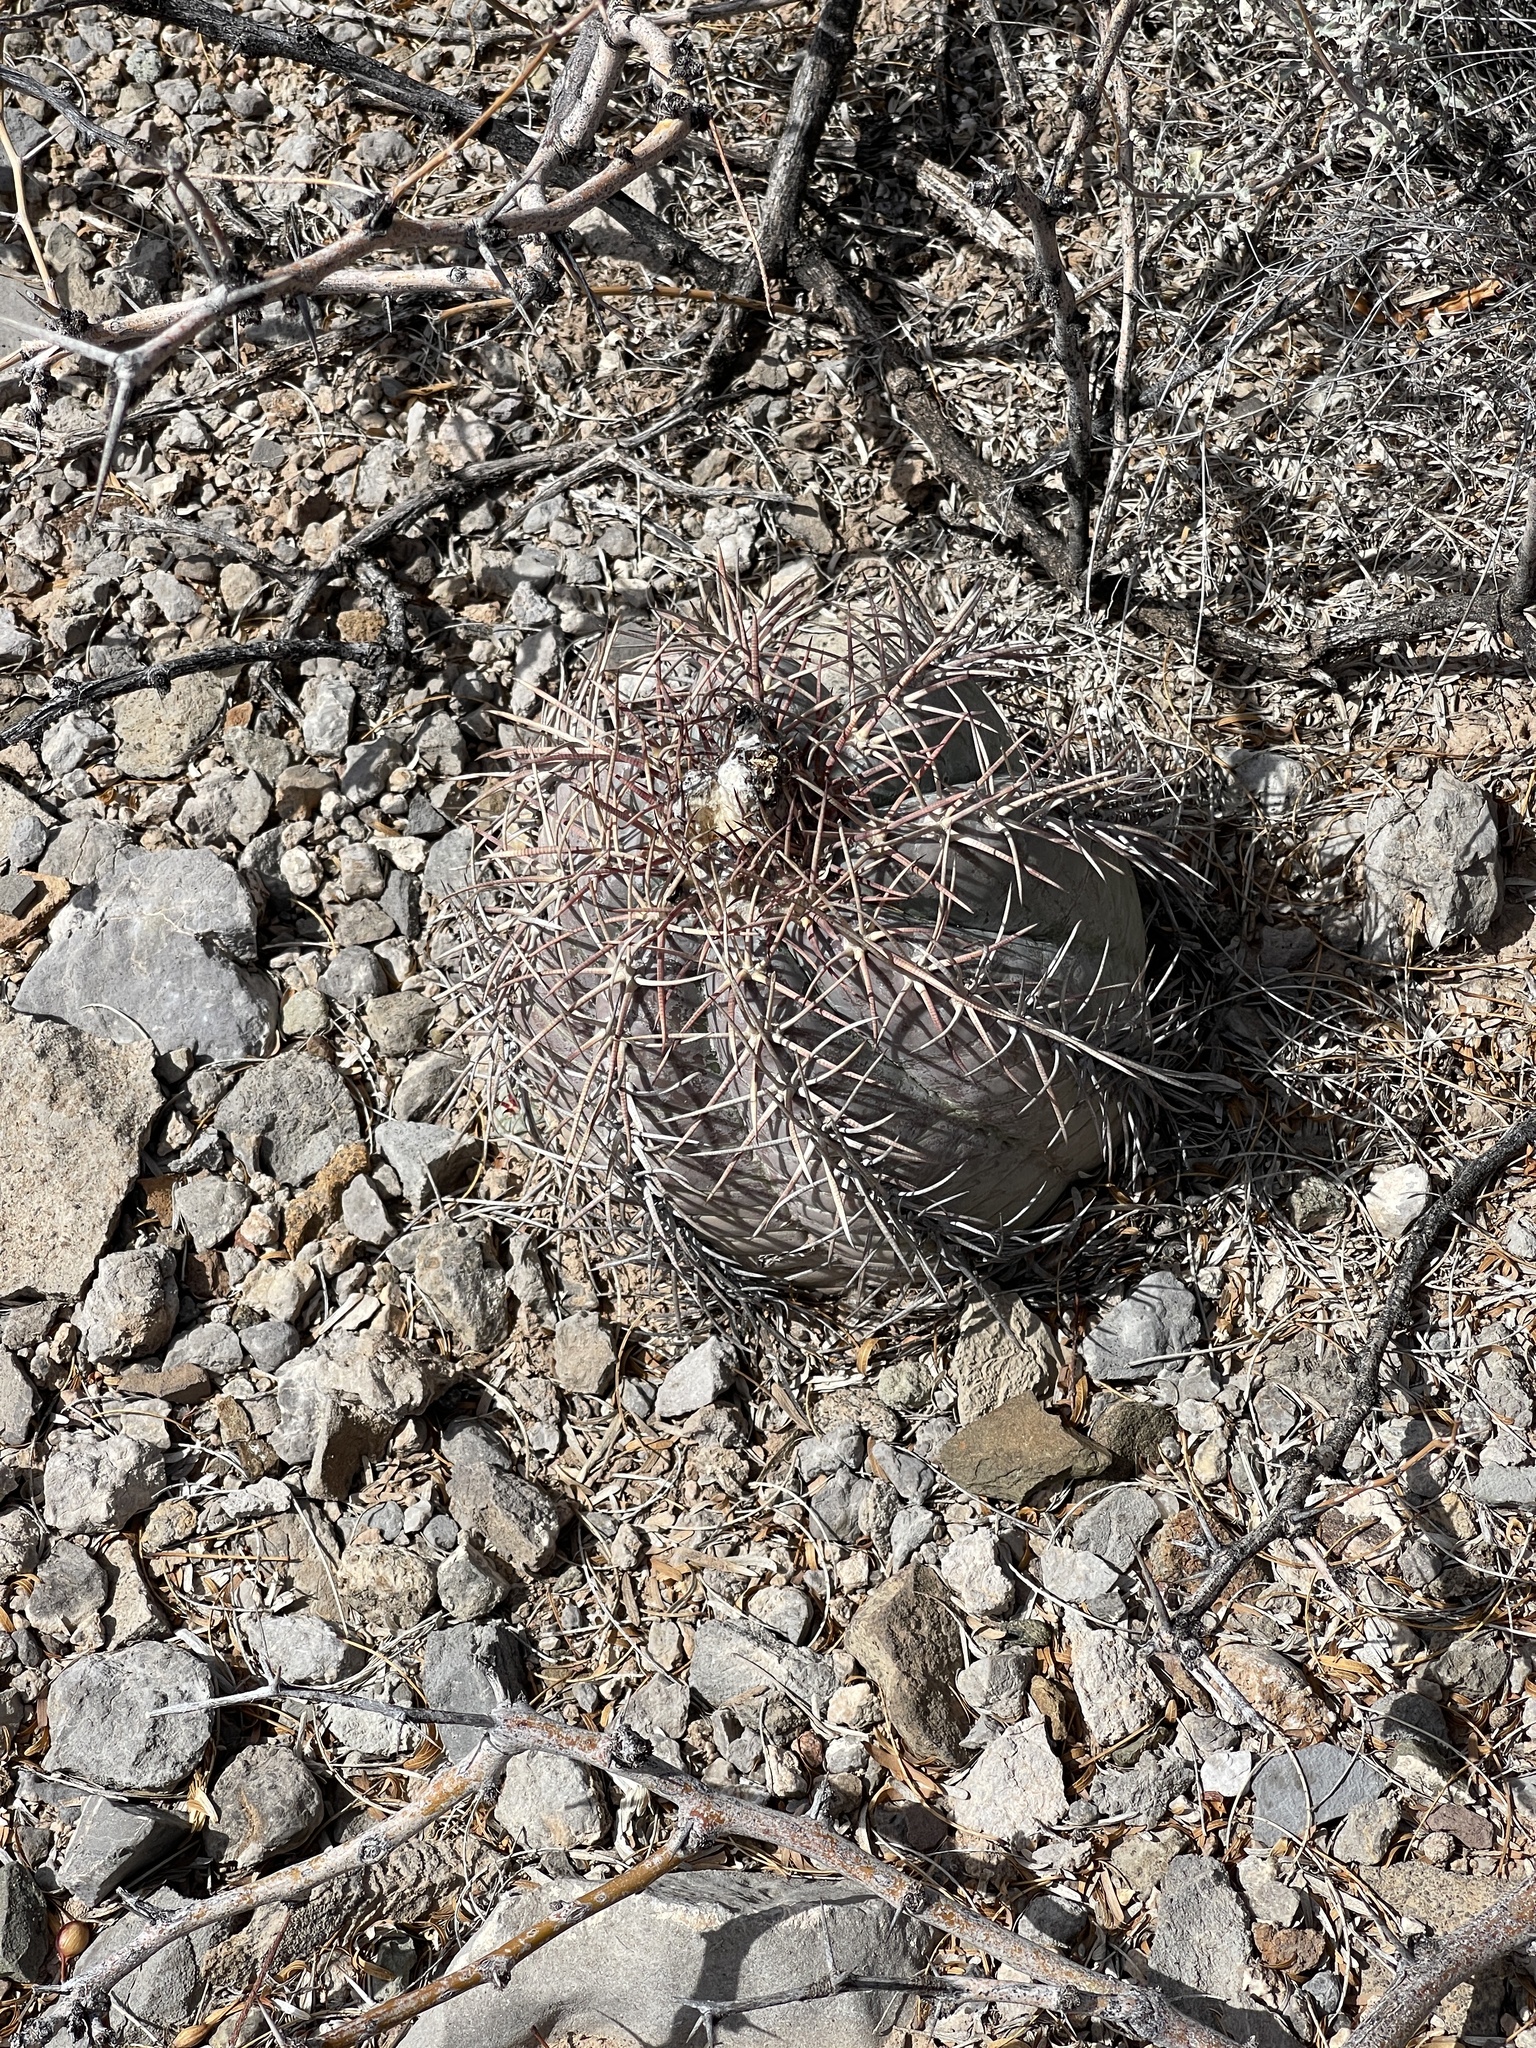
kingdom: Plantae
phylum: Tracheophyta
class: Magnoliopsida
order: Caryophyllales
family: Cactaceae
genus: Echinocactus
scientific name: Echinocactus horizonthalonius
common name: Devilshead
